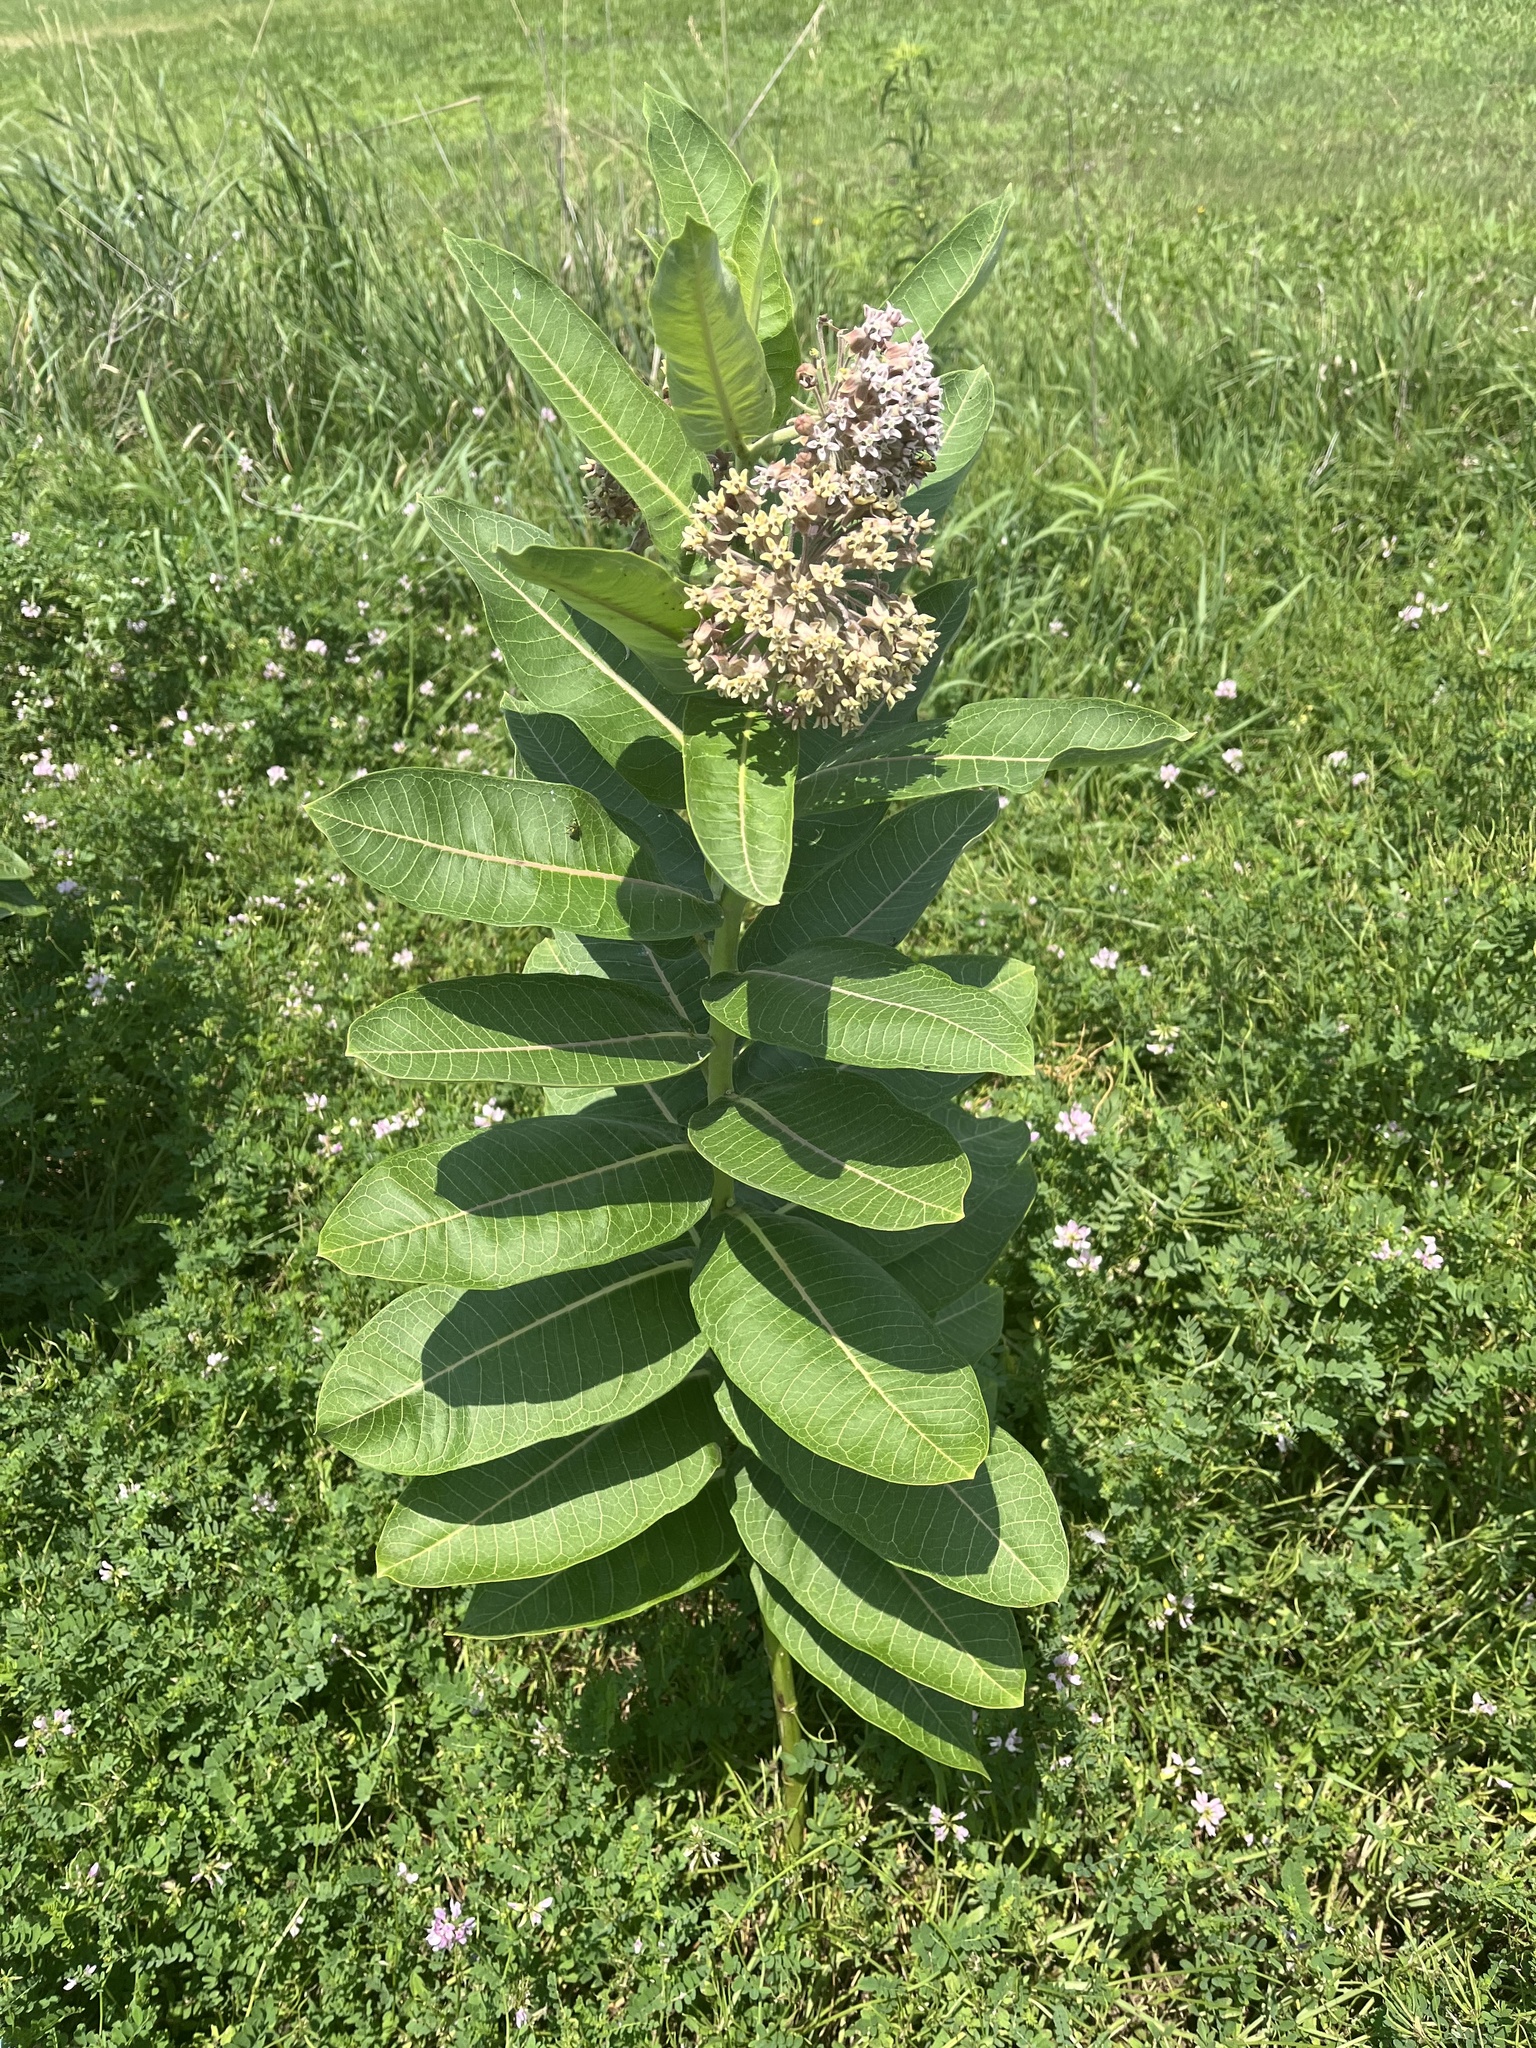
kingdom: Plantae
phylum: Tracheophyta
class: Magnoliopsida
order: Gentianales
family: Apocynaceae
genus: Asclepias
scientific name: Asclepias syriaca
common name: Common milkweed
